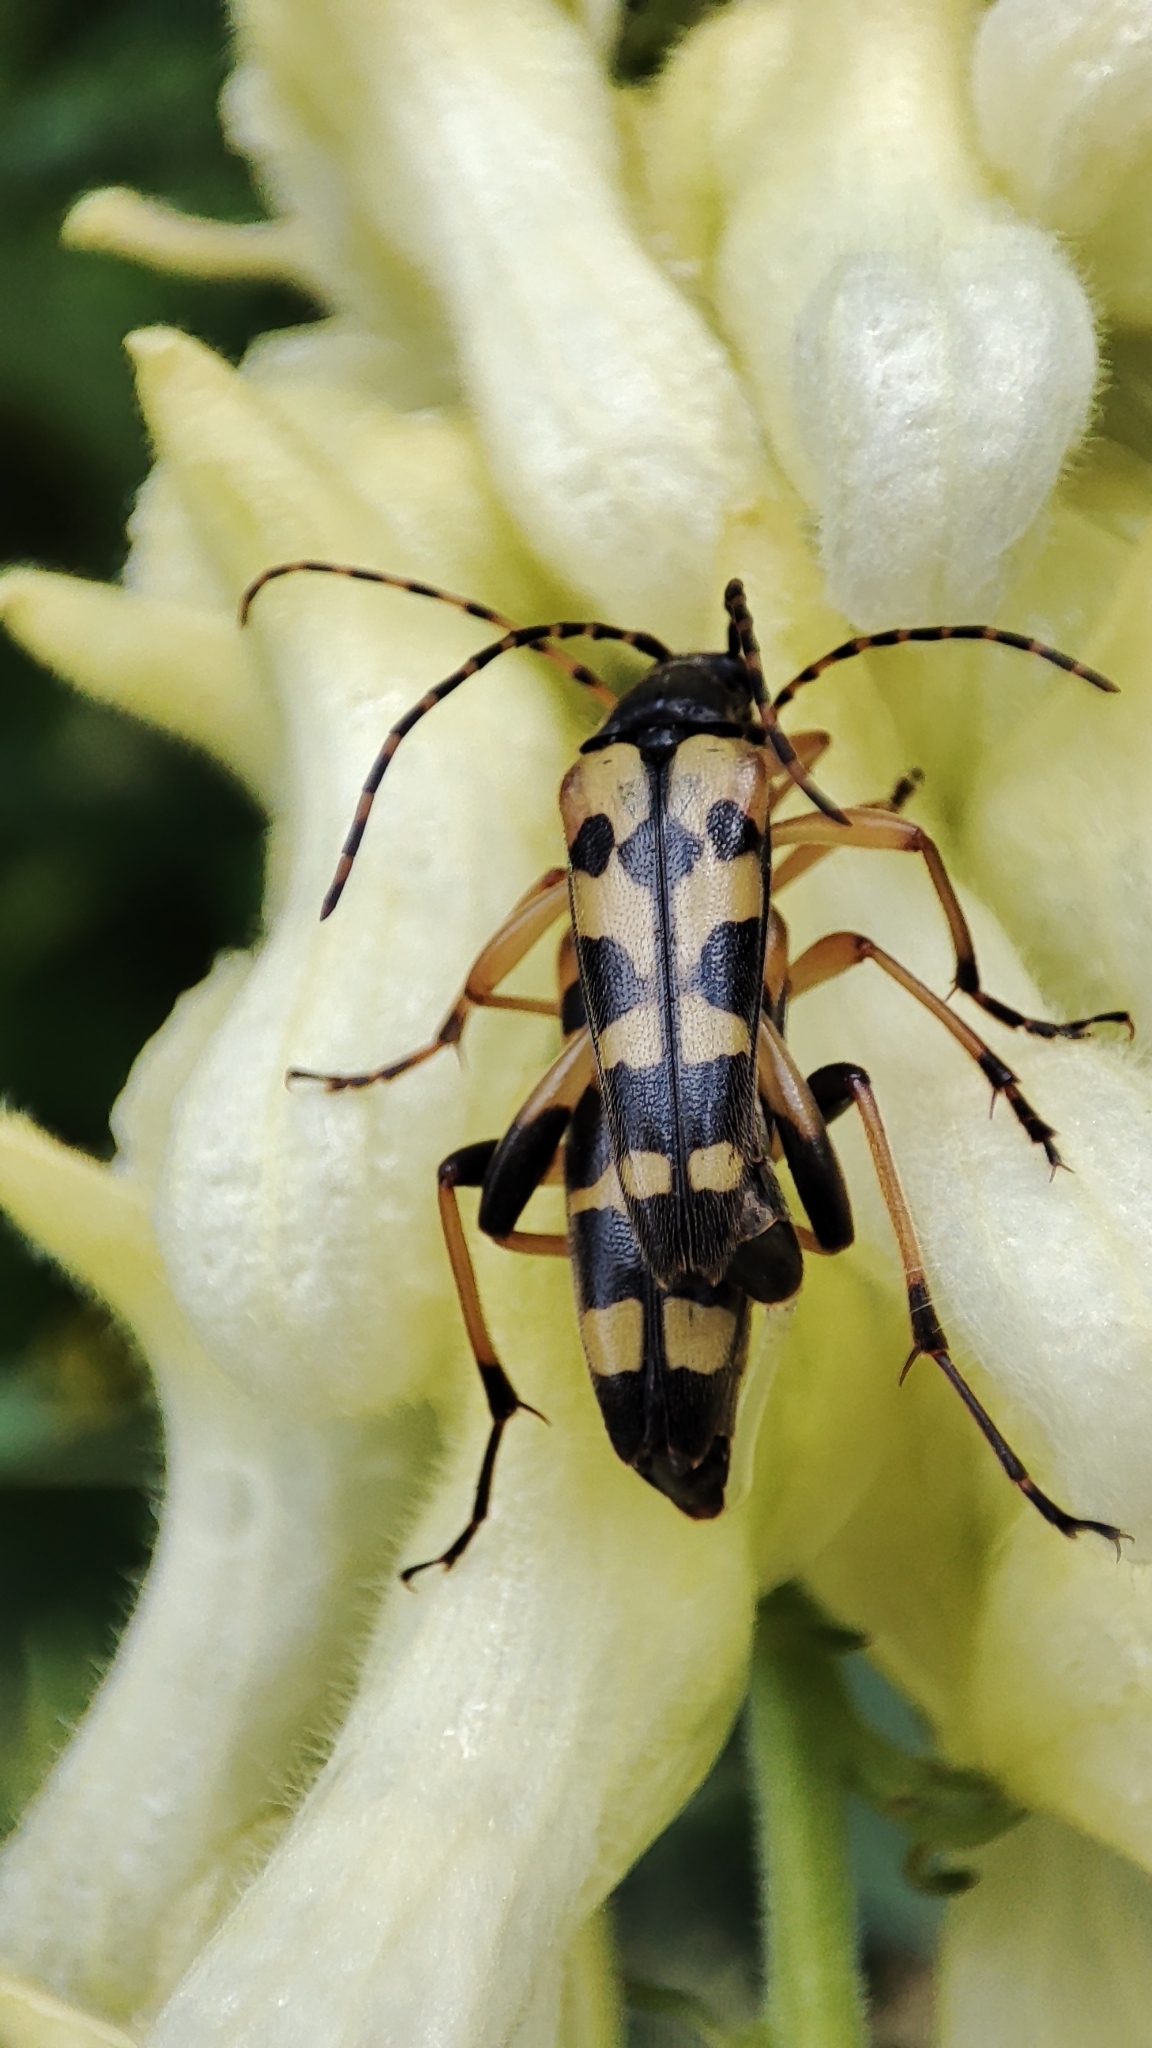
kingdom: Animalia
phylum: Arthropoda
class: Insecta
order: Coleoptera
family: Cerambycidae
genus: Rutpela
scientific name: Rutpela maculata
